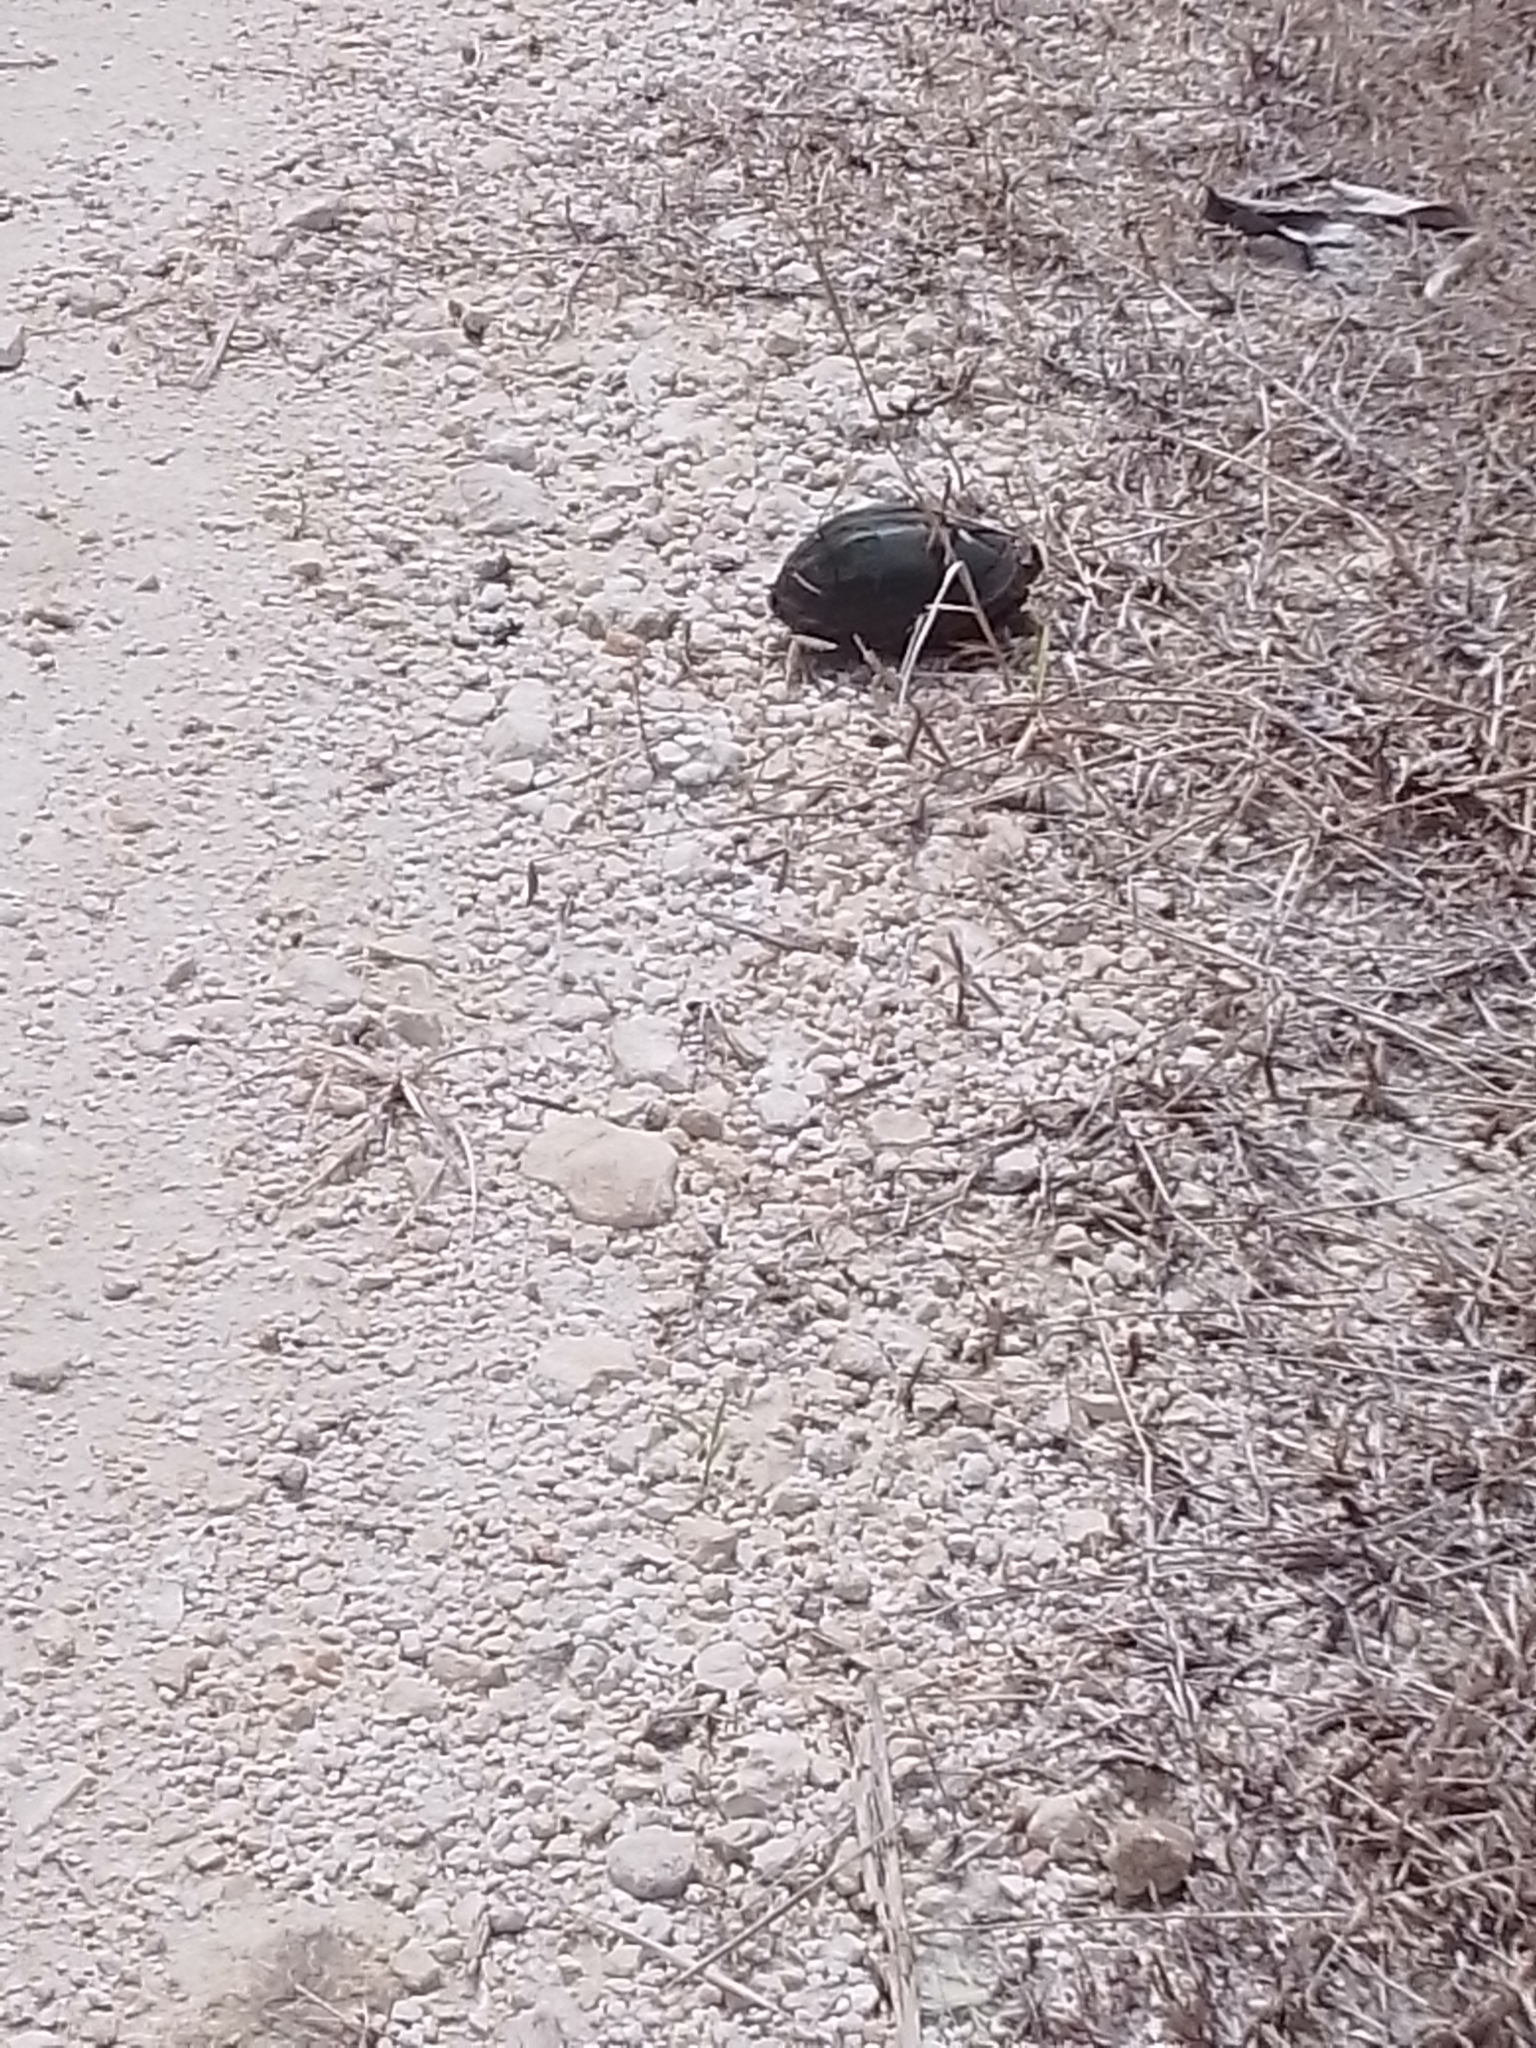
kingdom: Animalia
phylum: Chordata
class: Testudines
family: Kinosternidae
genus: Kinosternon
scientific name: Kinosternon scorpioides
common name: Scorpion mud turtle
